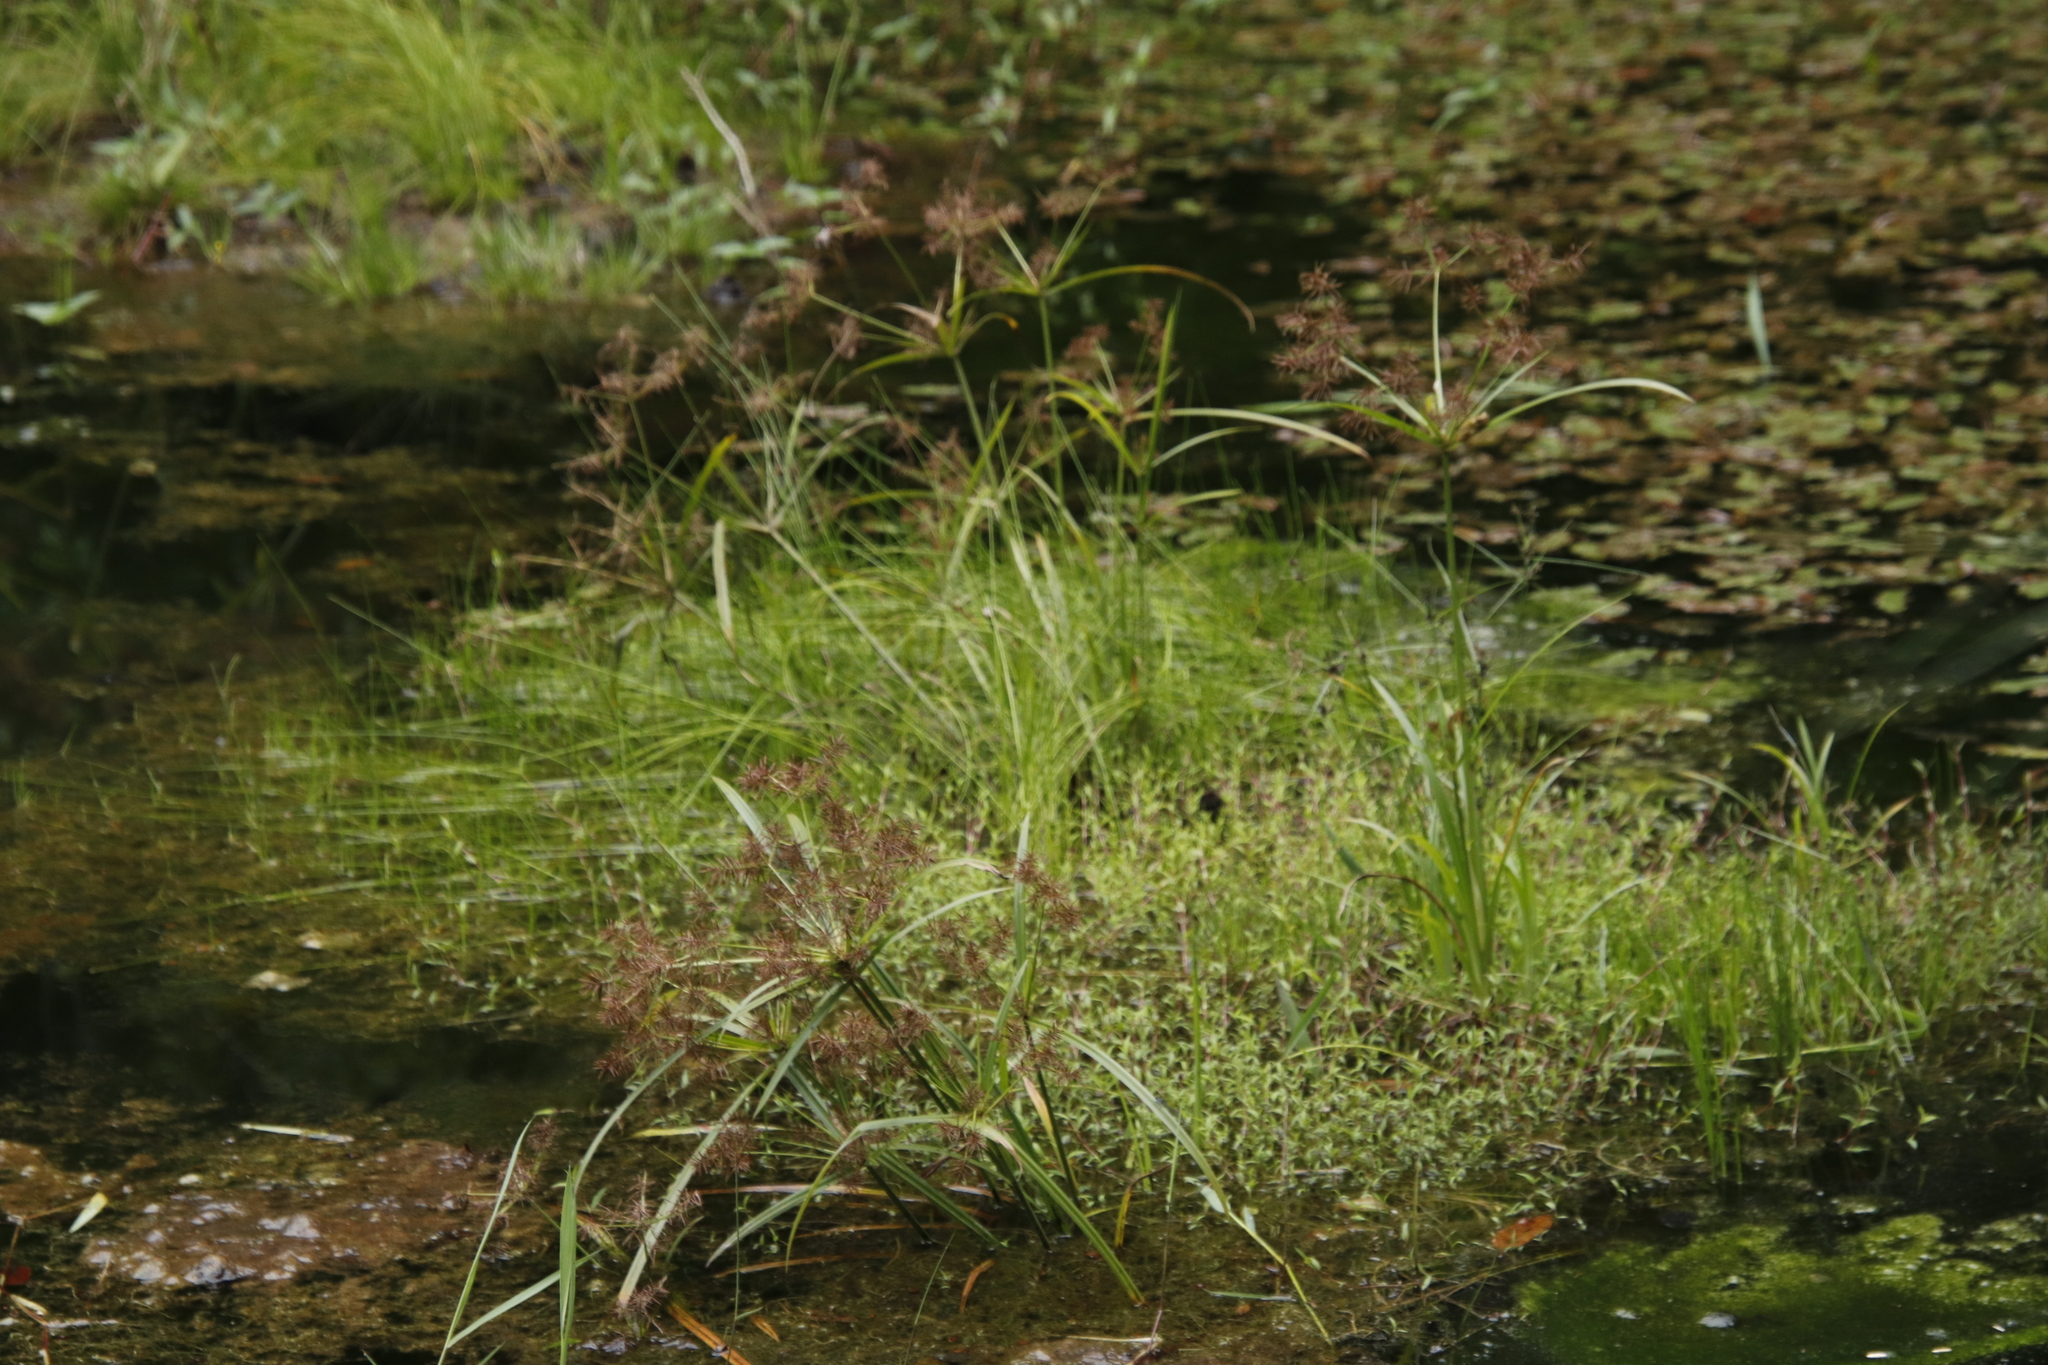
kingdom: Plantae
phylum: Tracheophyta
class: Liliopsida
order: Poales
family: Cyperaceae
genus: Cyperus
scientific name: Cyperus distans
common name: Slender cyperus
